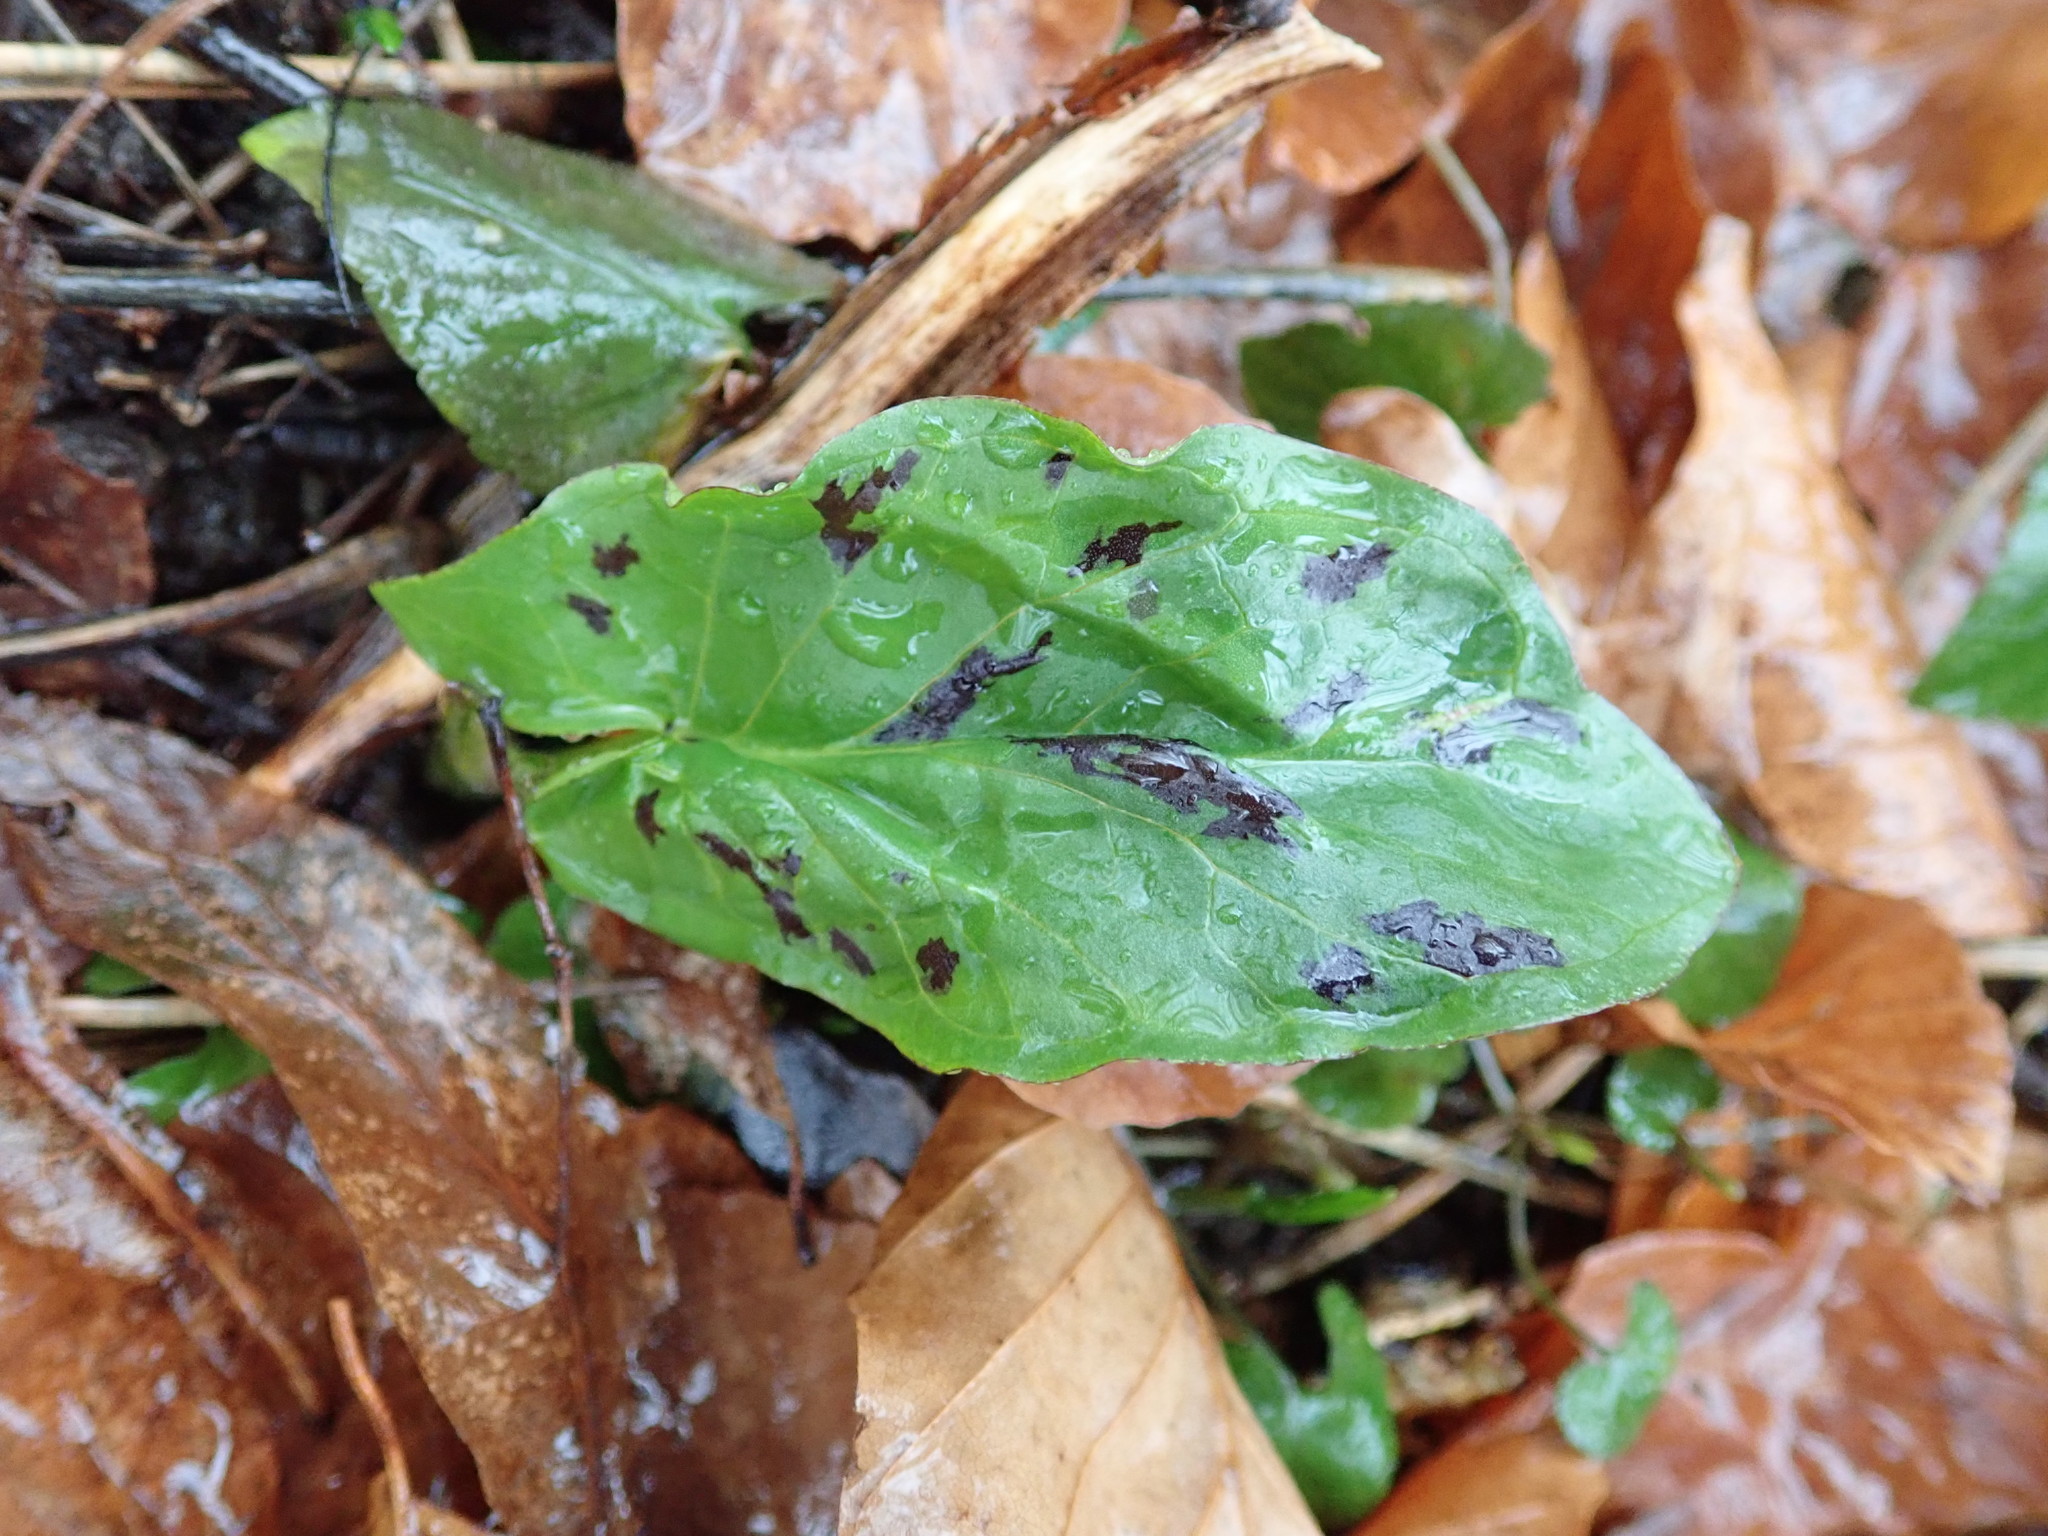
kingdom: Plantae
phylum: Tracheophyta
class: Liliopsida
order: Alismatales
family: Araceae
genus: Arum
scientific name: Arum maculatum
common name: Lords-and-ladies
